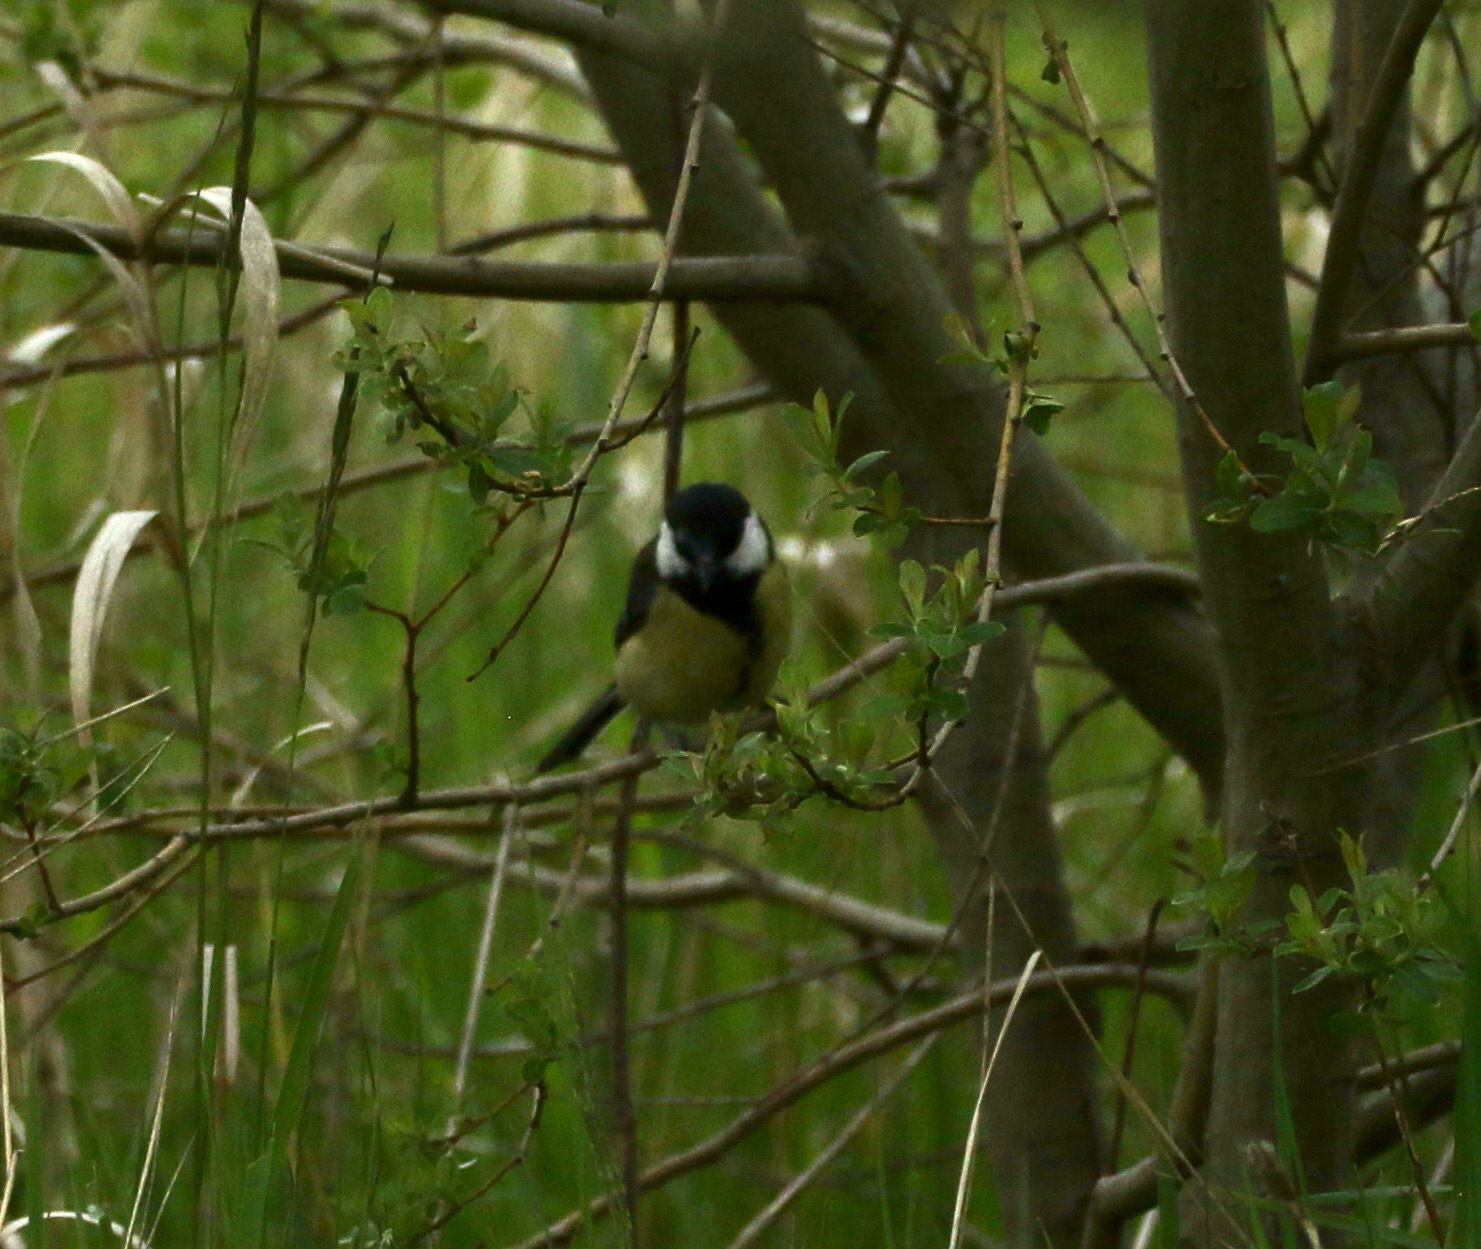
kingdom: Animalia
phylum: Chordata
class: Aves
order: Passeriformes
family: Paridae
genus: Parus
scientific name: Parus major
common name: Great tit
